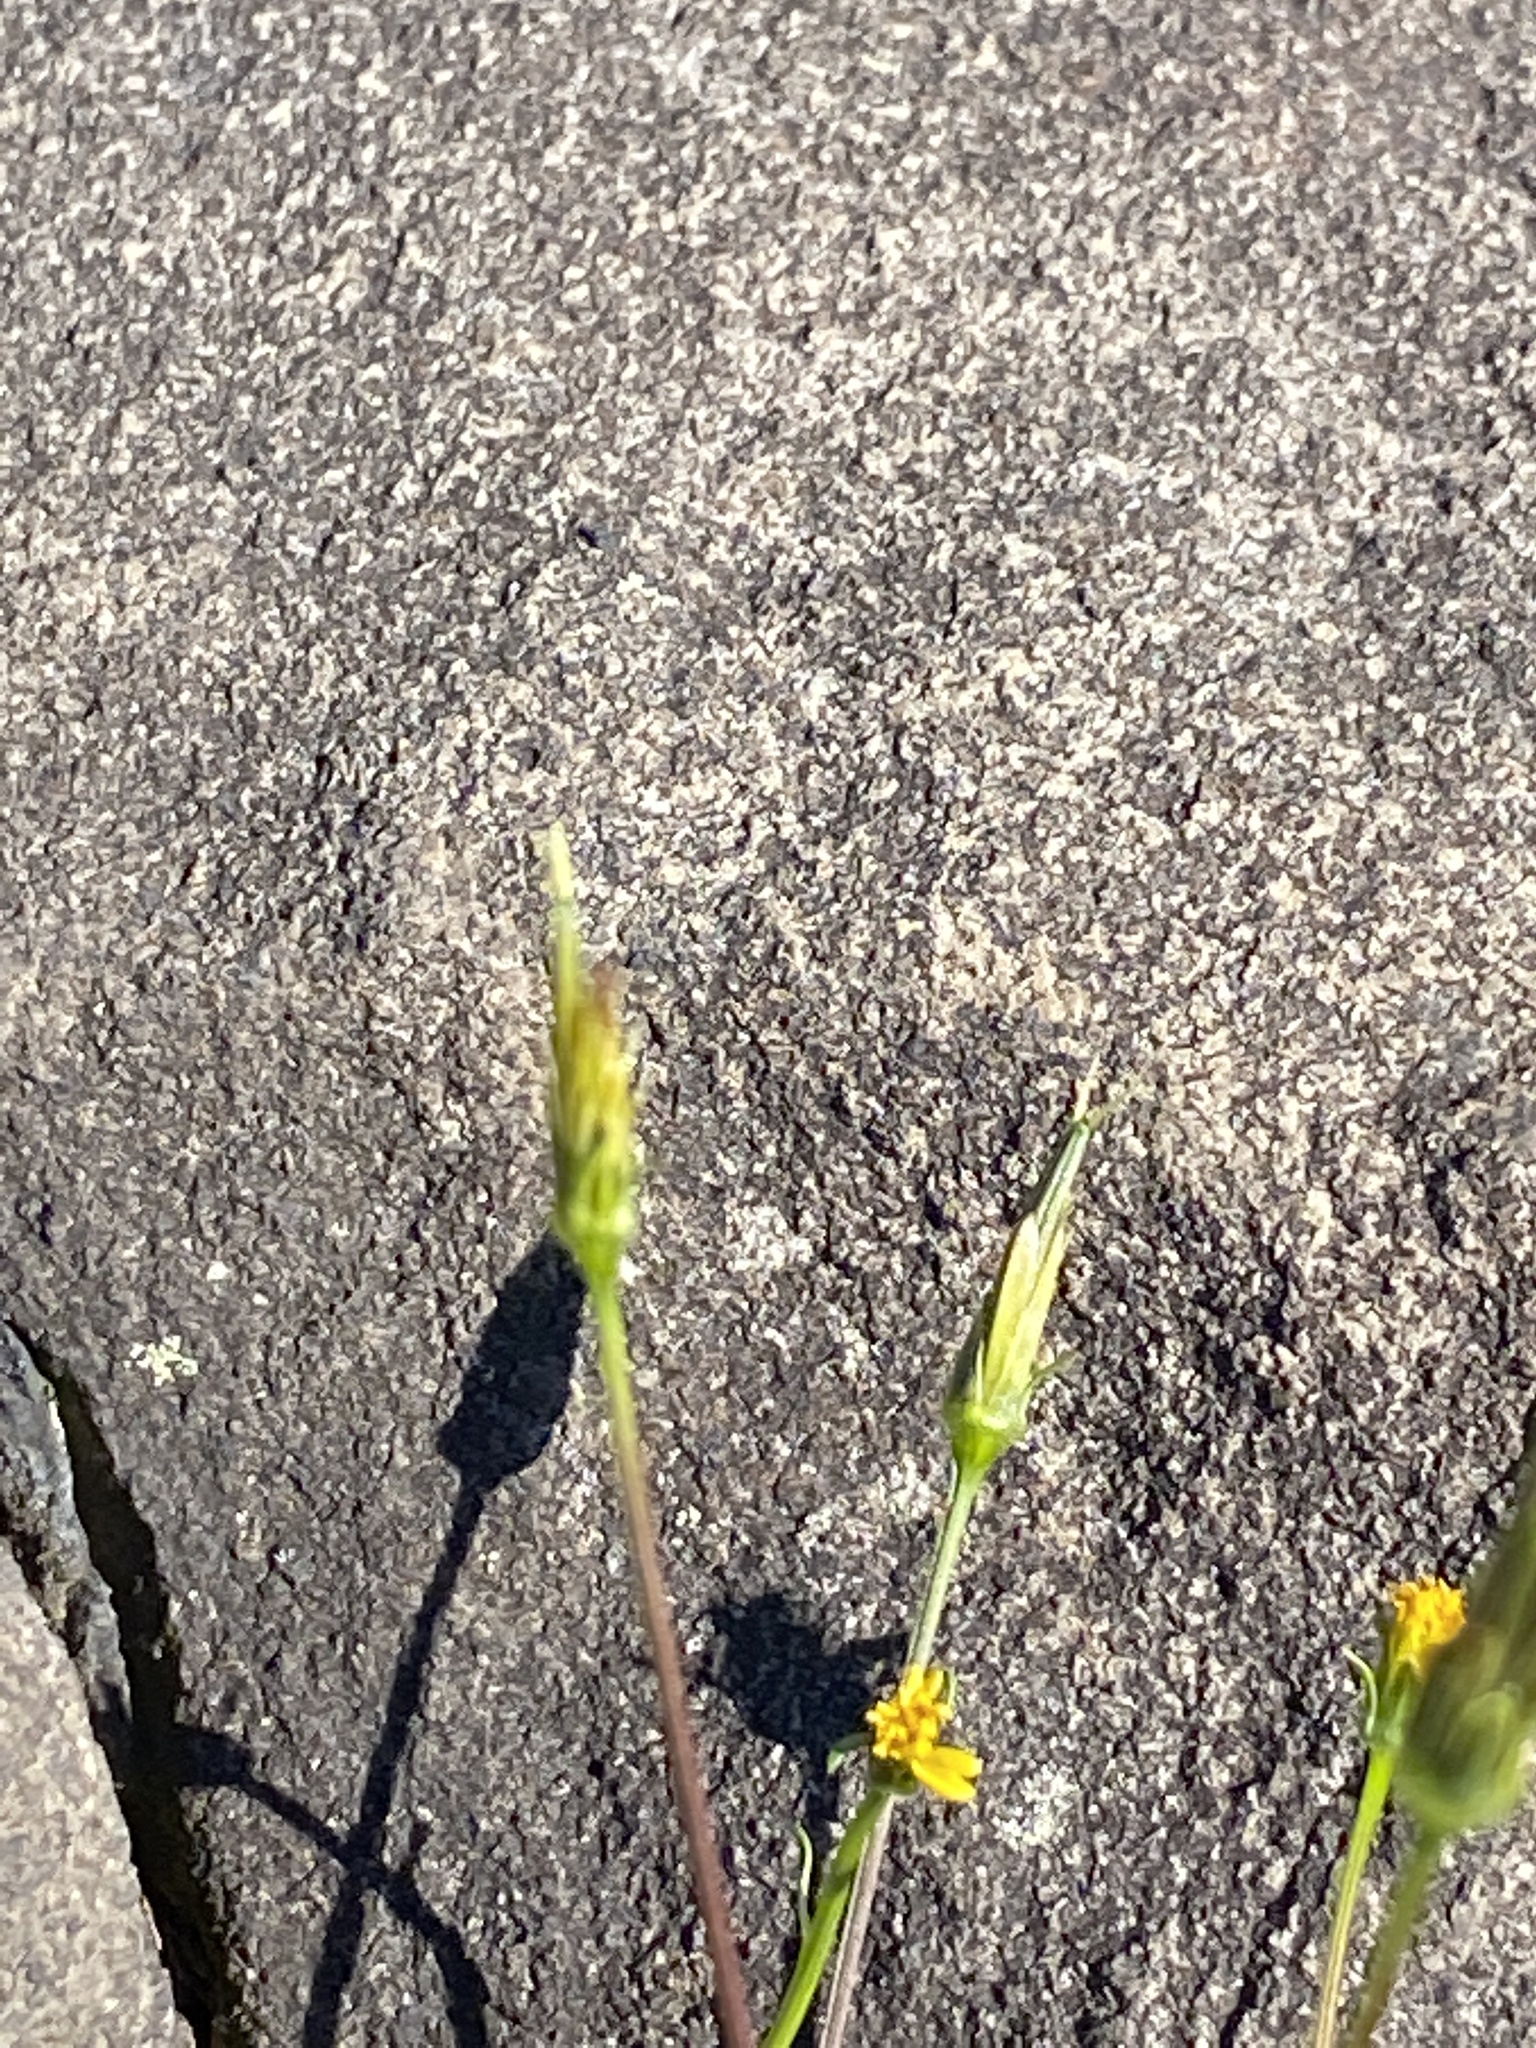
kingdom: Plantae
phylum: Tracheophyta
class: Magnoliopsida
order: Asterales
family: Asteraceae
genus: Bidens
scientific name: Bidens bipinnata
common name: Spanish-needles
